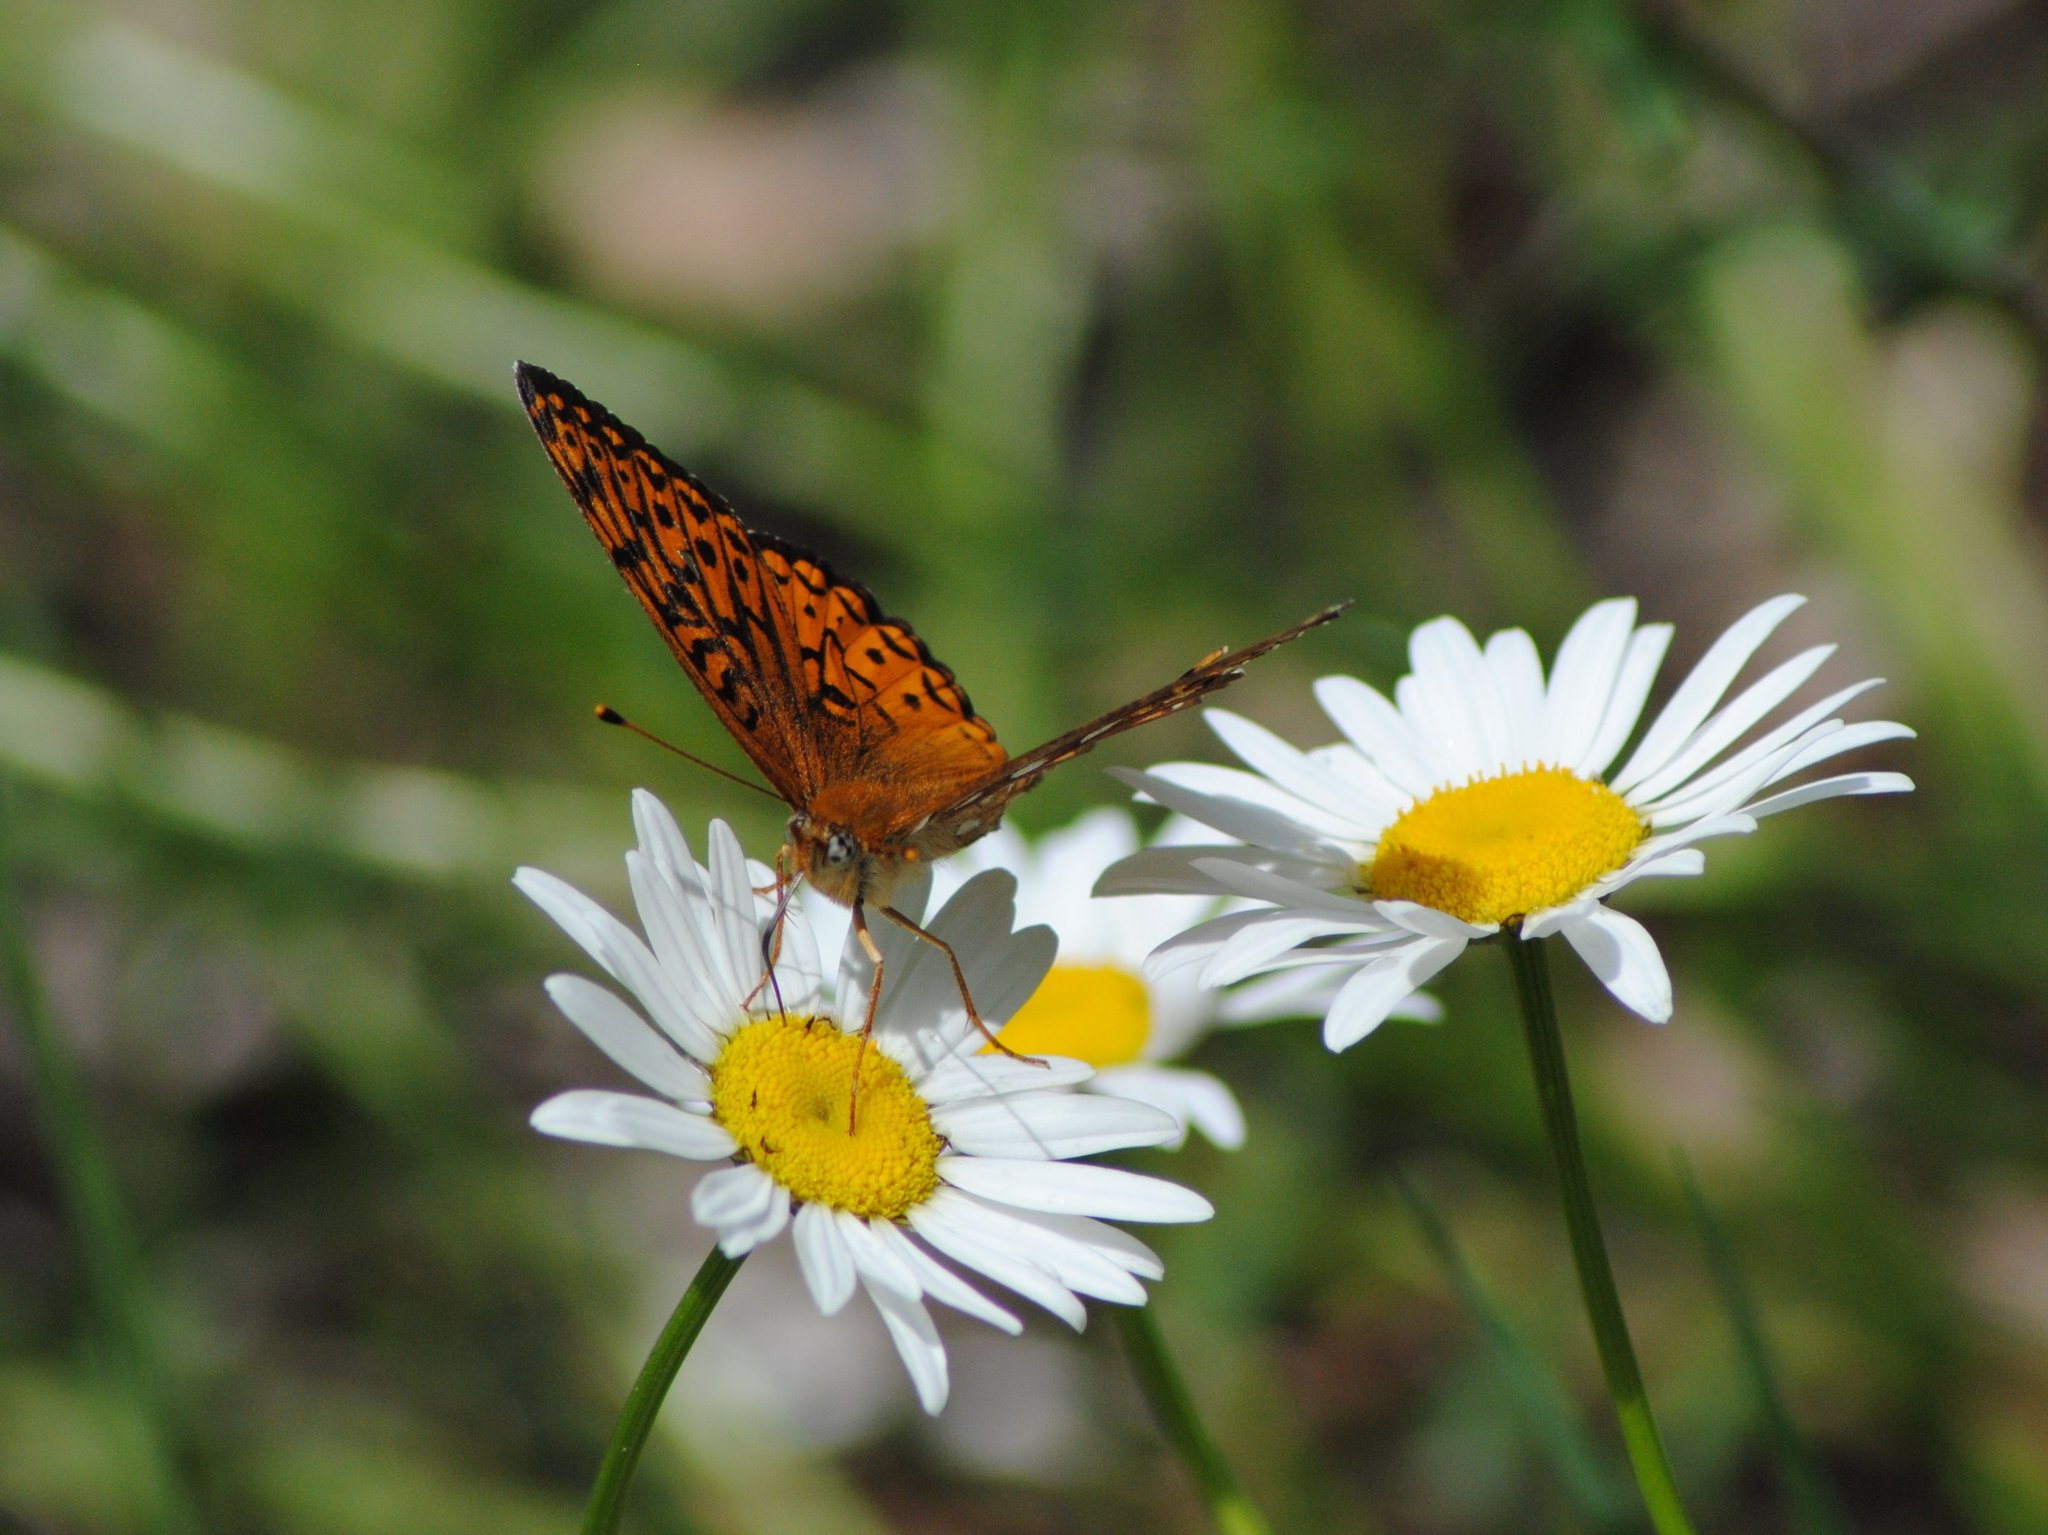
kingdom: Animalia
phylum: Arthropoda
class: Insecta
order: Lepidoptera
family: Nymphalidae
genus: Speyeria
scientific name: Speyeria atlantis
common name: Atlantis fritillary
